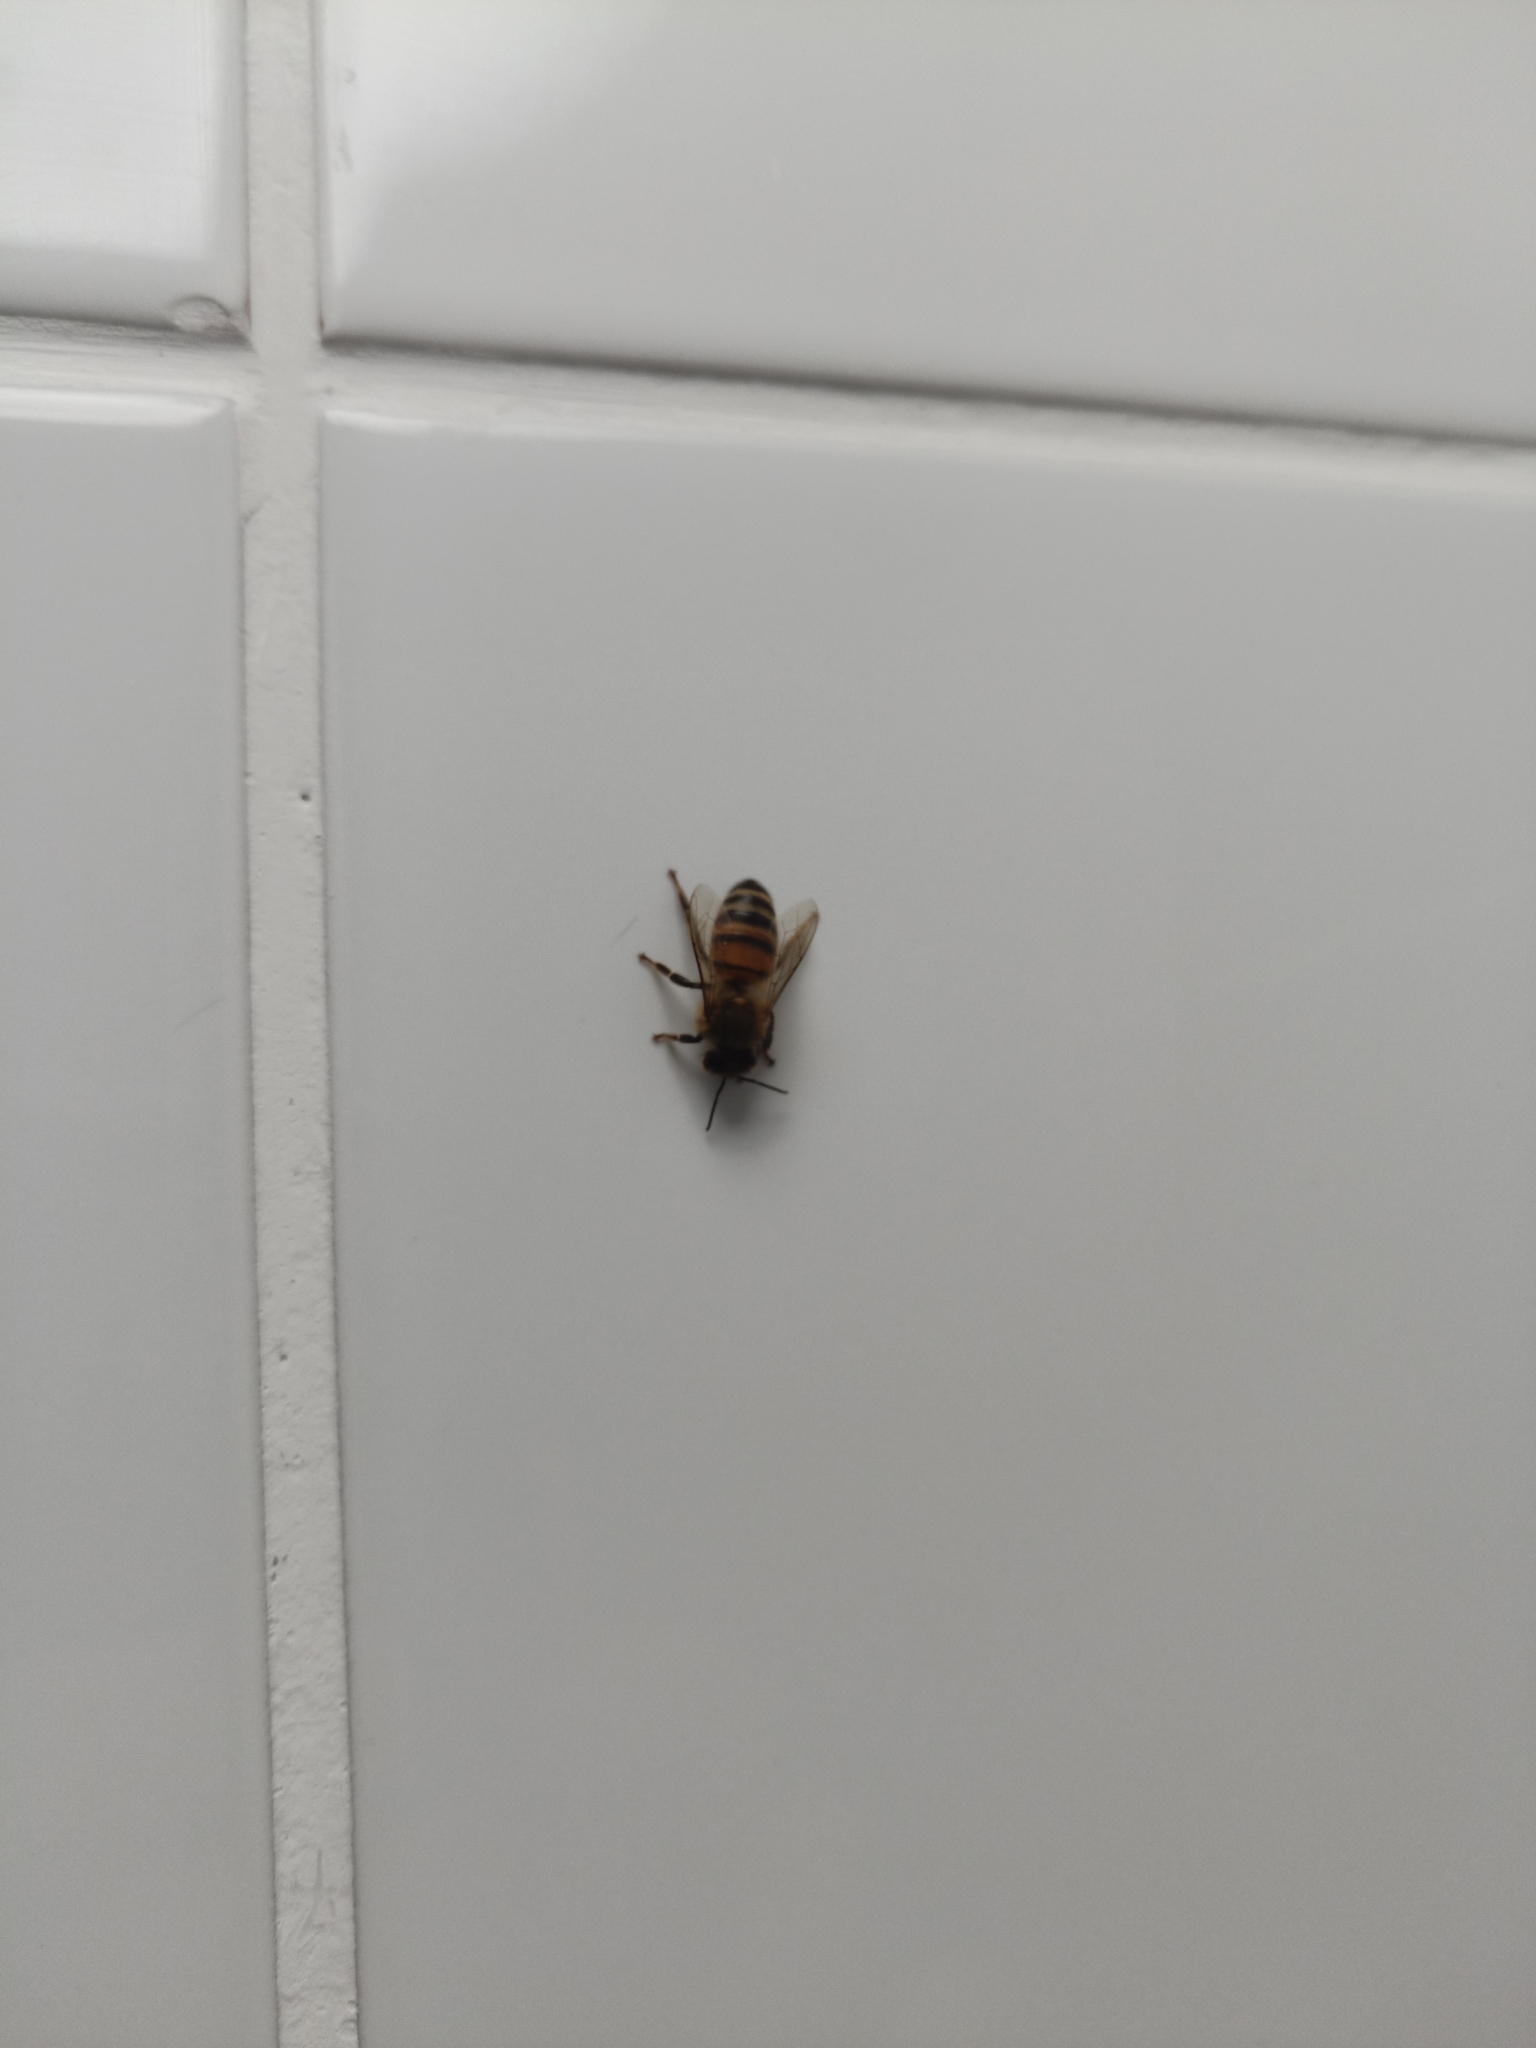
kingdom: Animalia
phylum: Arthropoda
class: Insecta
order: Hymenoptera
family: Apidae
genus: Apis
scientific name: Apis mellifera
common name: Honey bee
